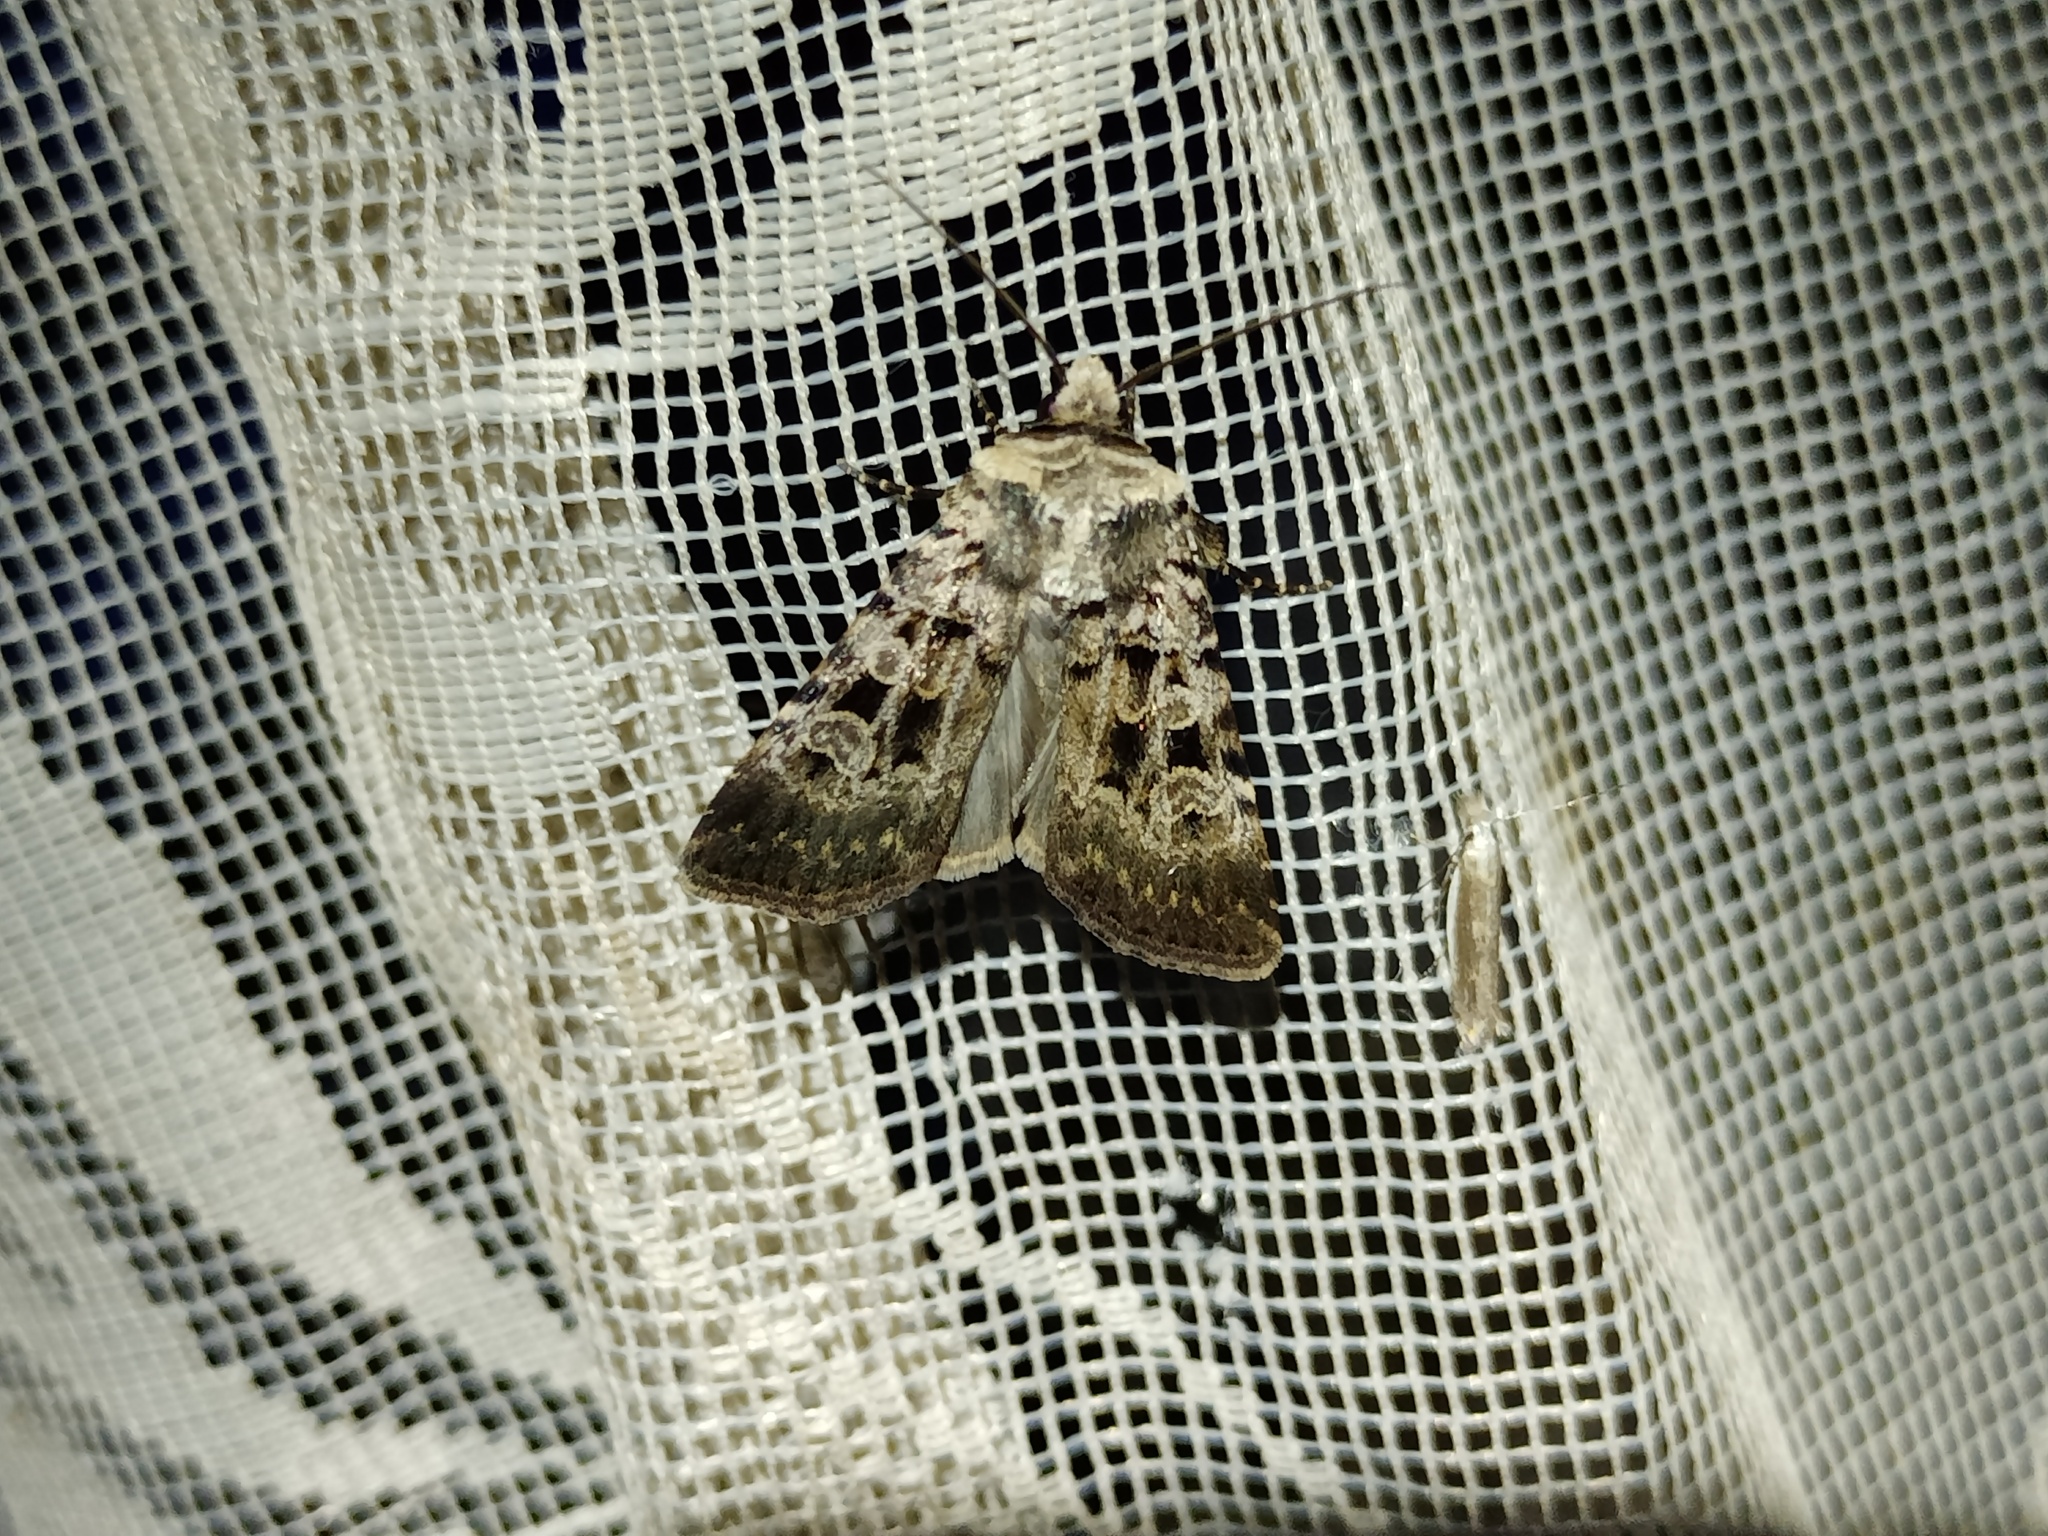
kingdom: Animalia
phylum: Arthropoda
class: Insecta
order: Lepidoptera
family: Noctuidae
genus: Chersotis
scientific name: Chersotis multangula
